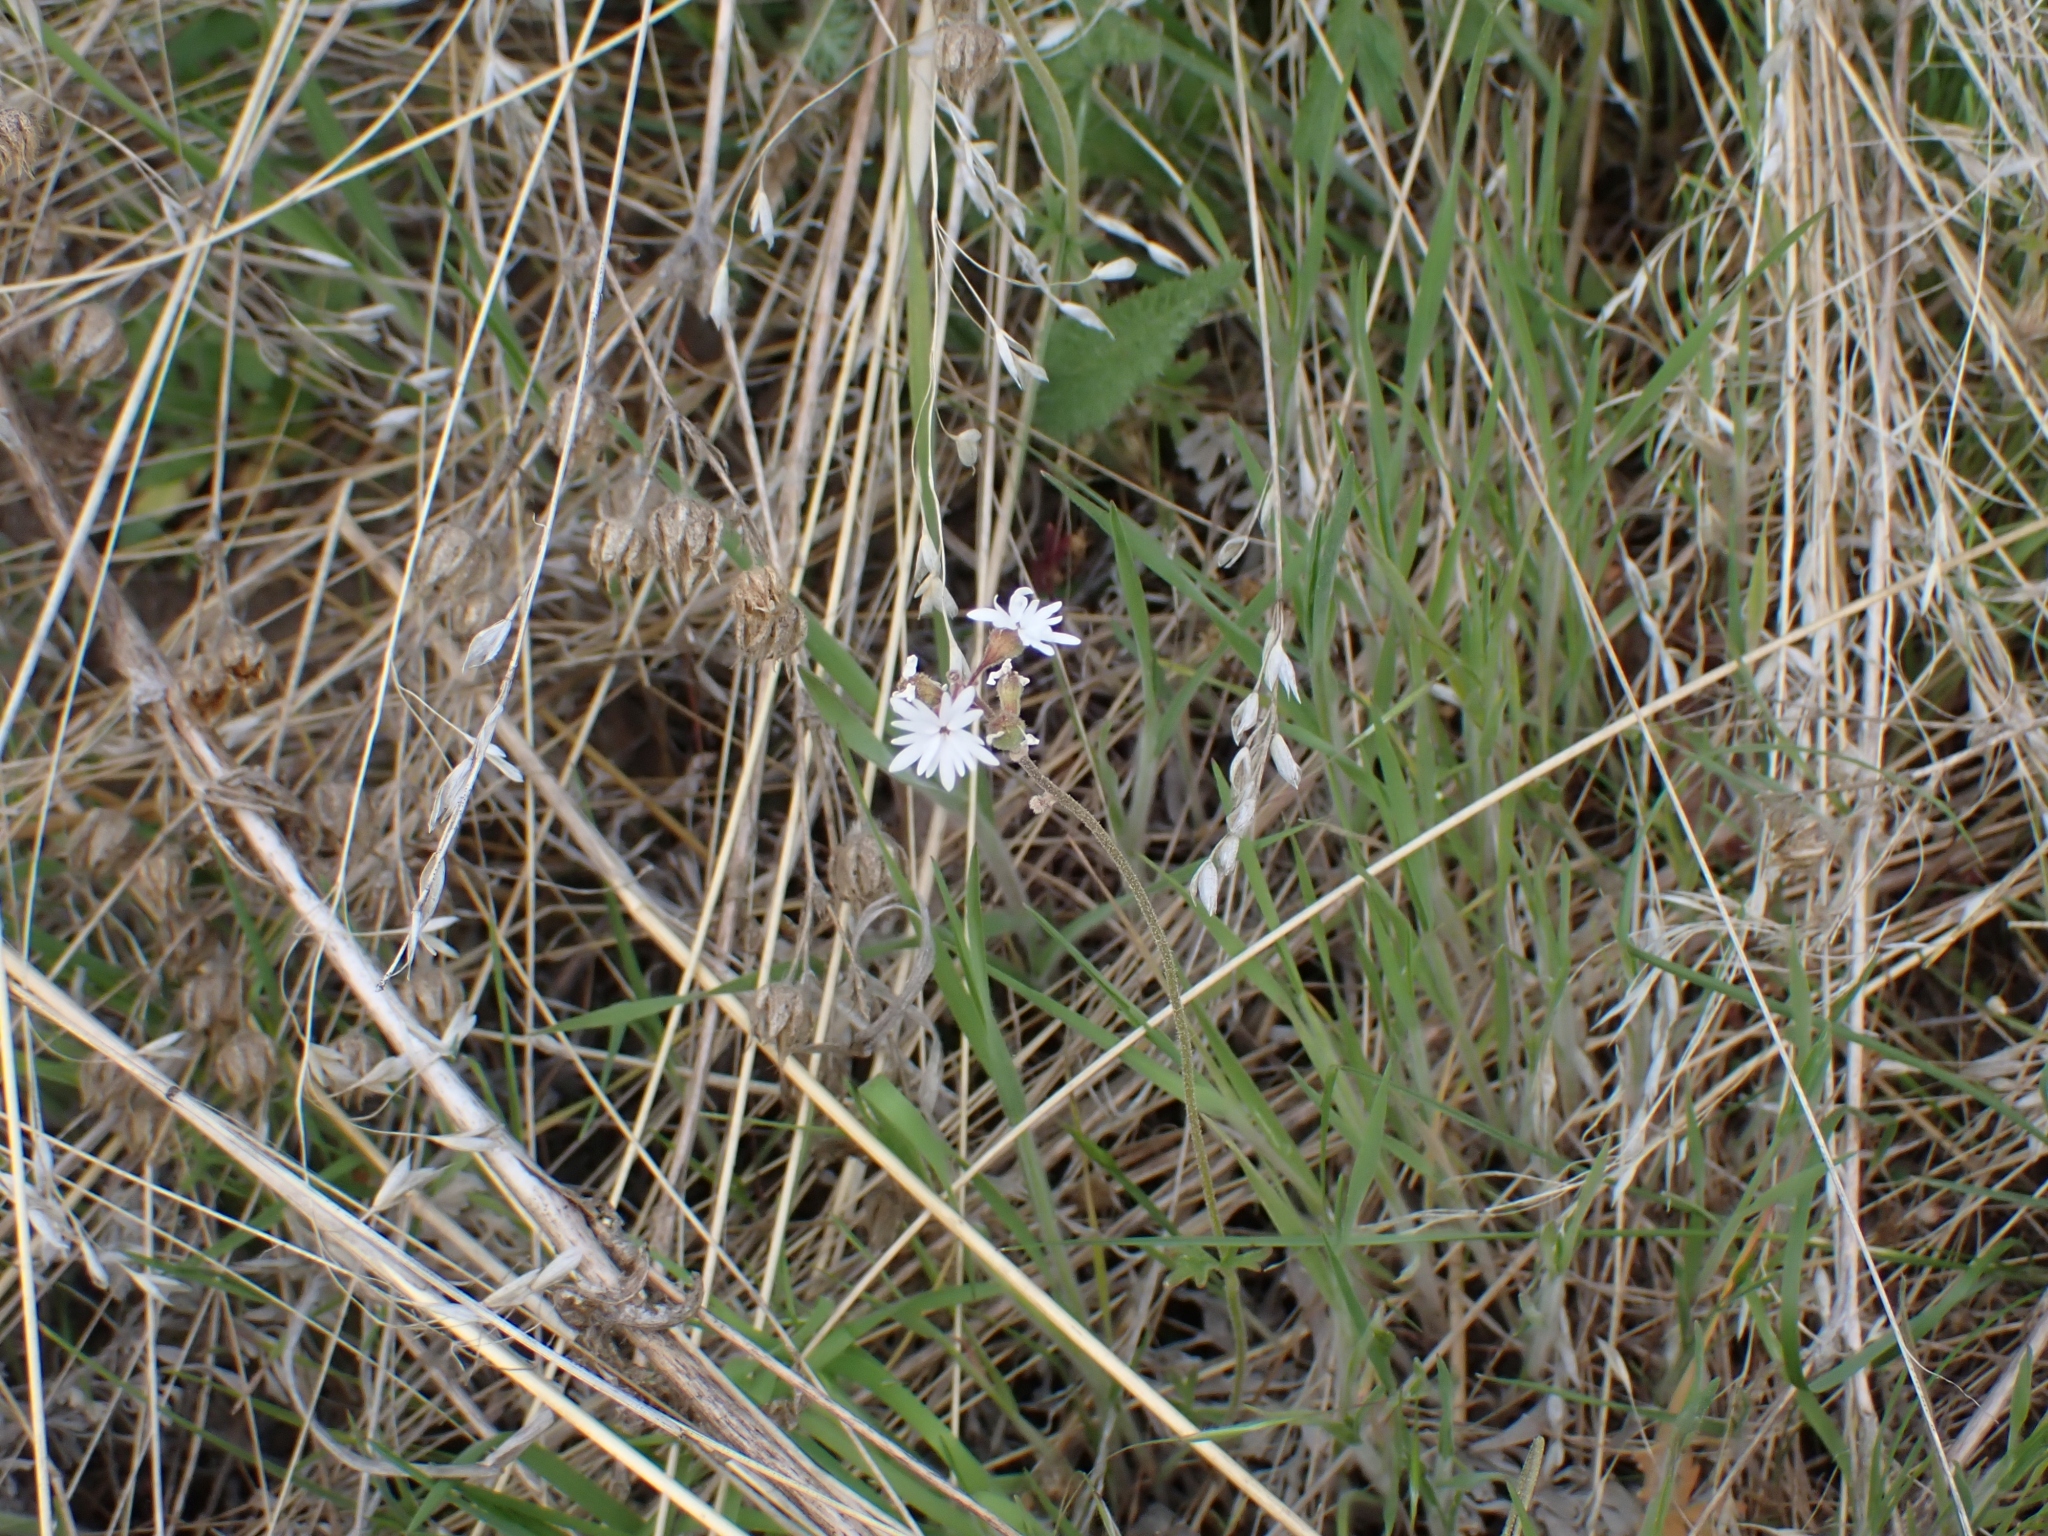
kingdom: Plantae
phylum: Tracheophyta
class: Magnoliopsida
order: Saxifragales
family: Saxifragaceae
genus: Lithophragma
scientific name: Lithophragma parviflorum
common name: Small-flowered fringe-cup
